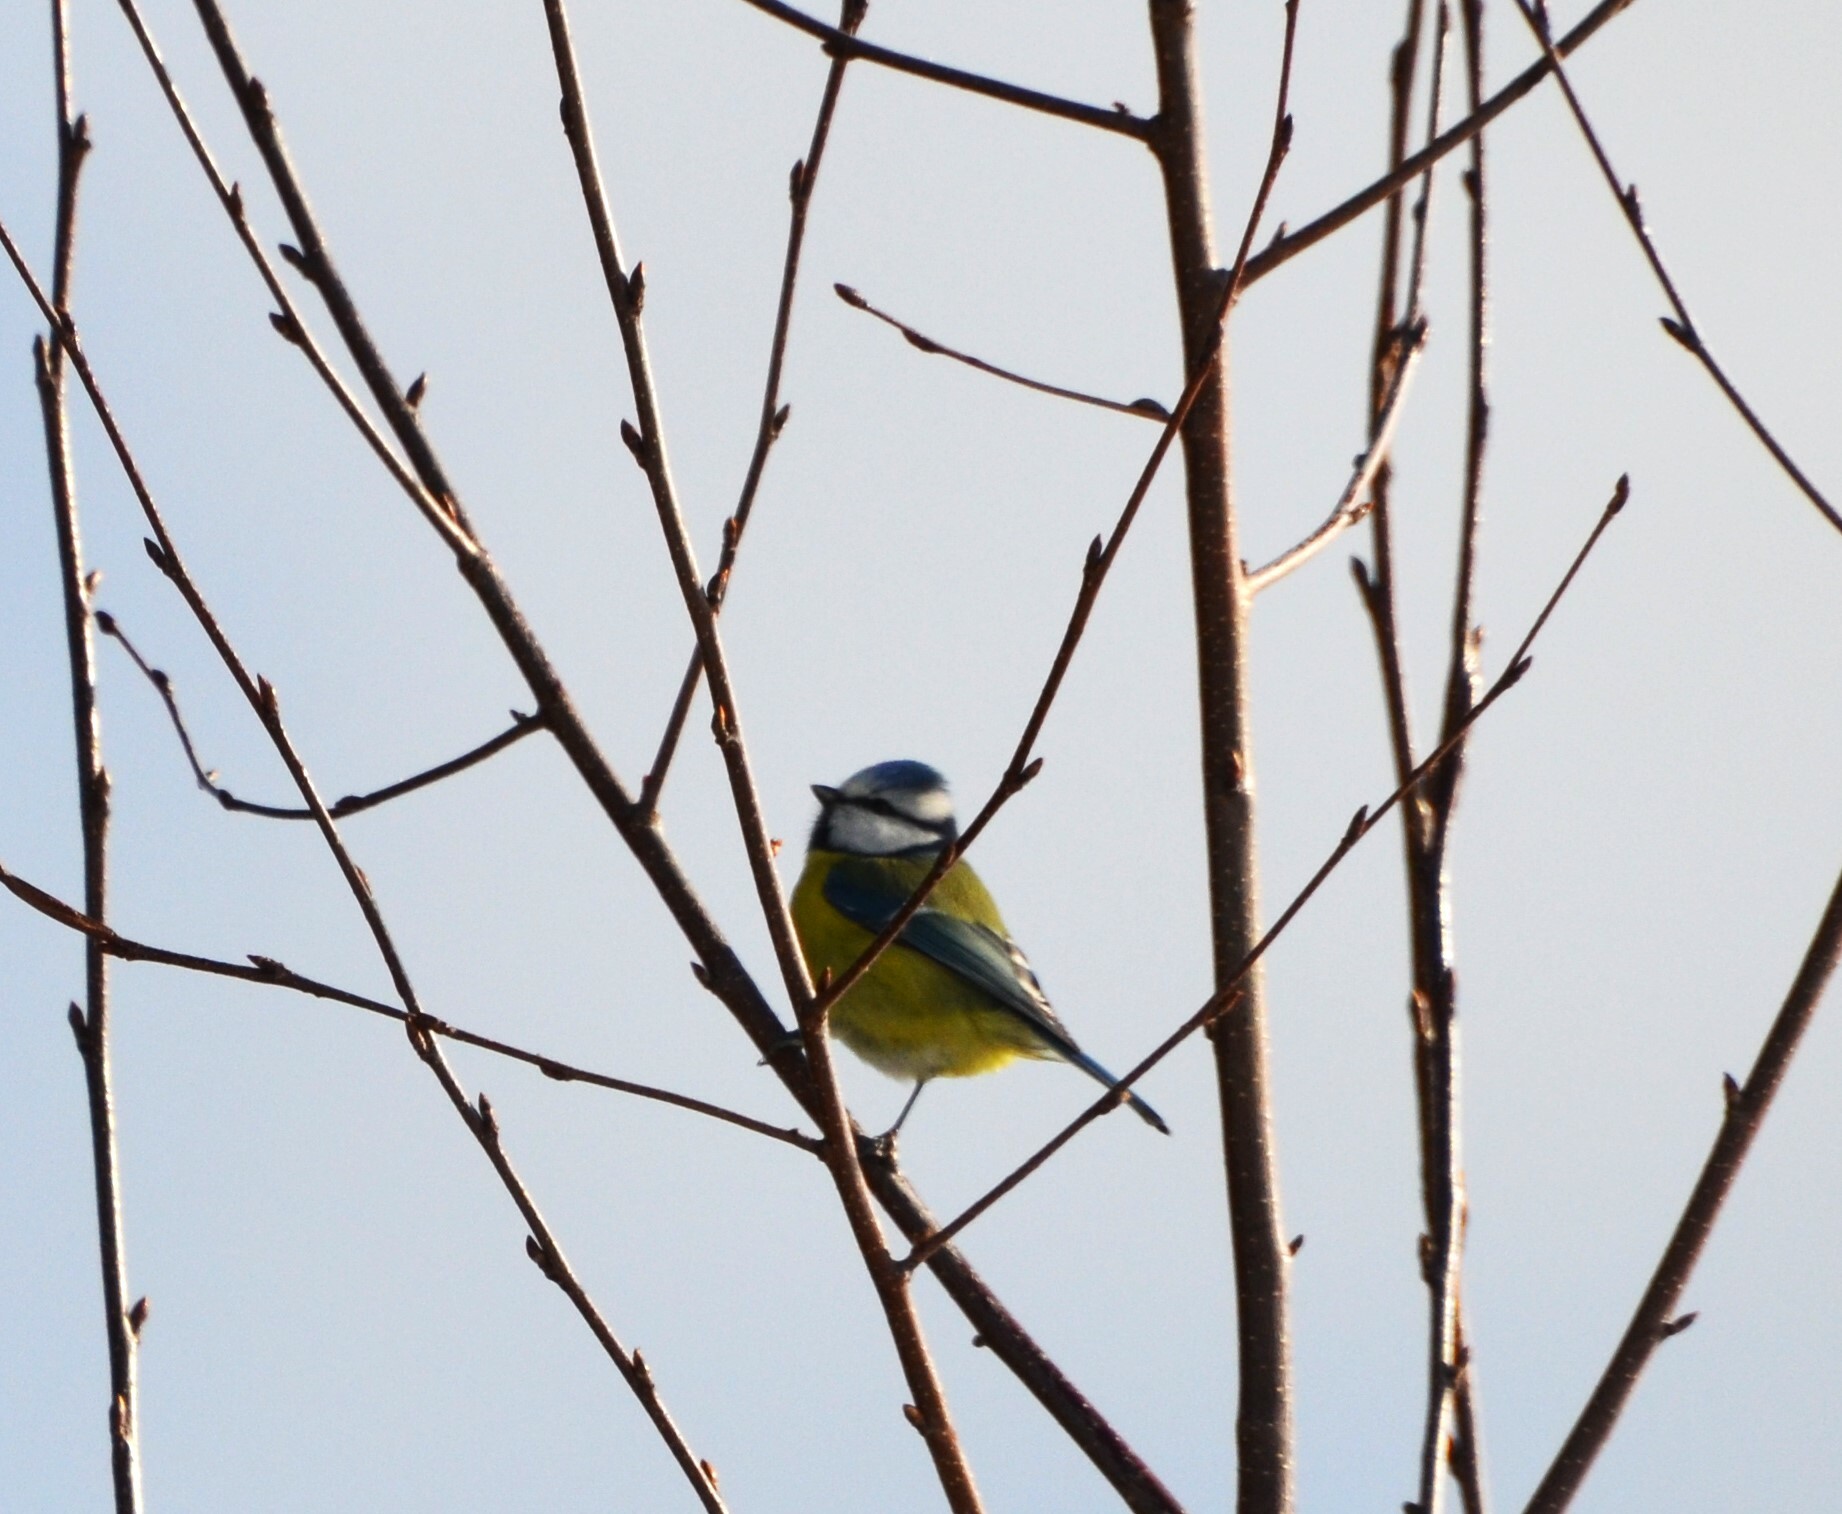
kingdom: Animalia
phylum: Chordata
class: Aves
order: Passeriformes
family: Paridae
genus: Cyanistes
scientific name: Cyanistes caeruleus
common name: Eurasian blue tit
